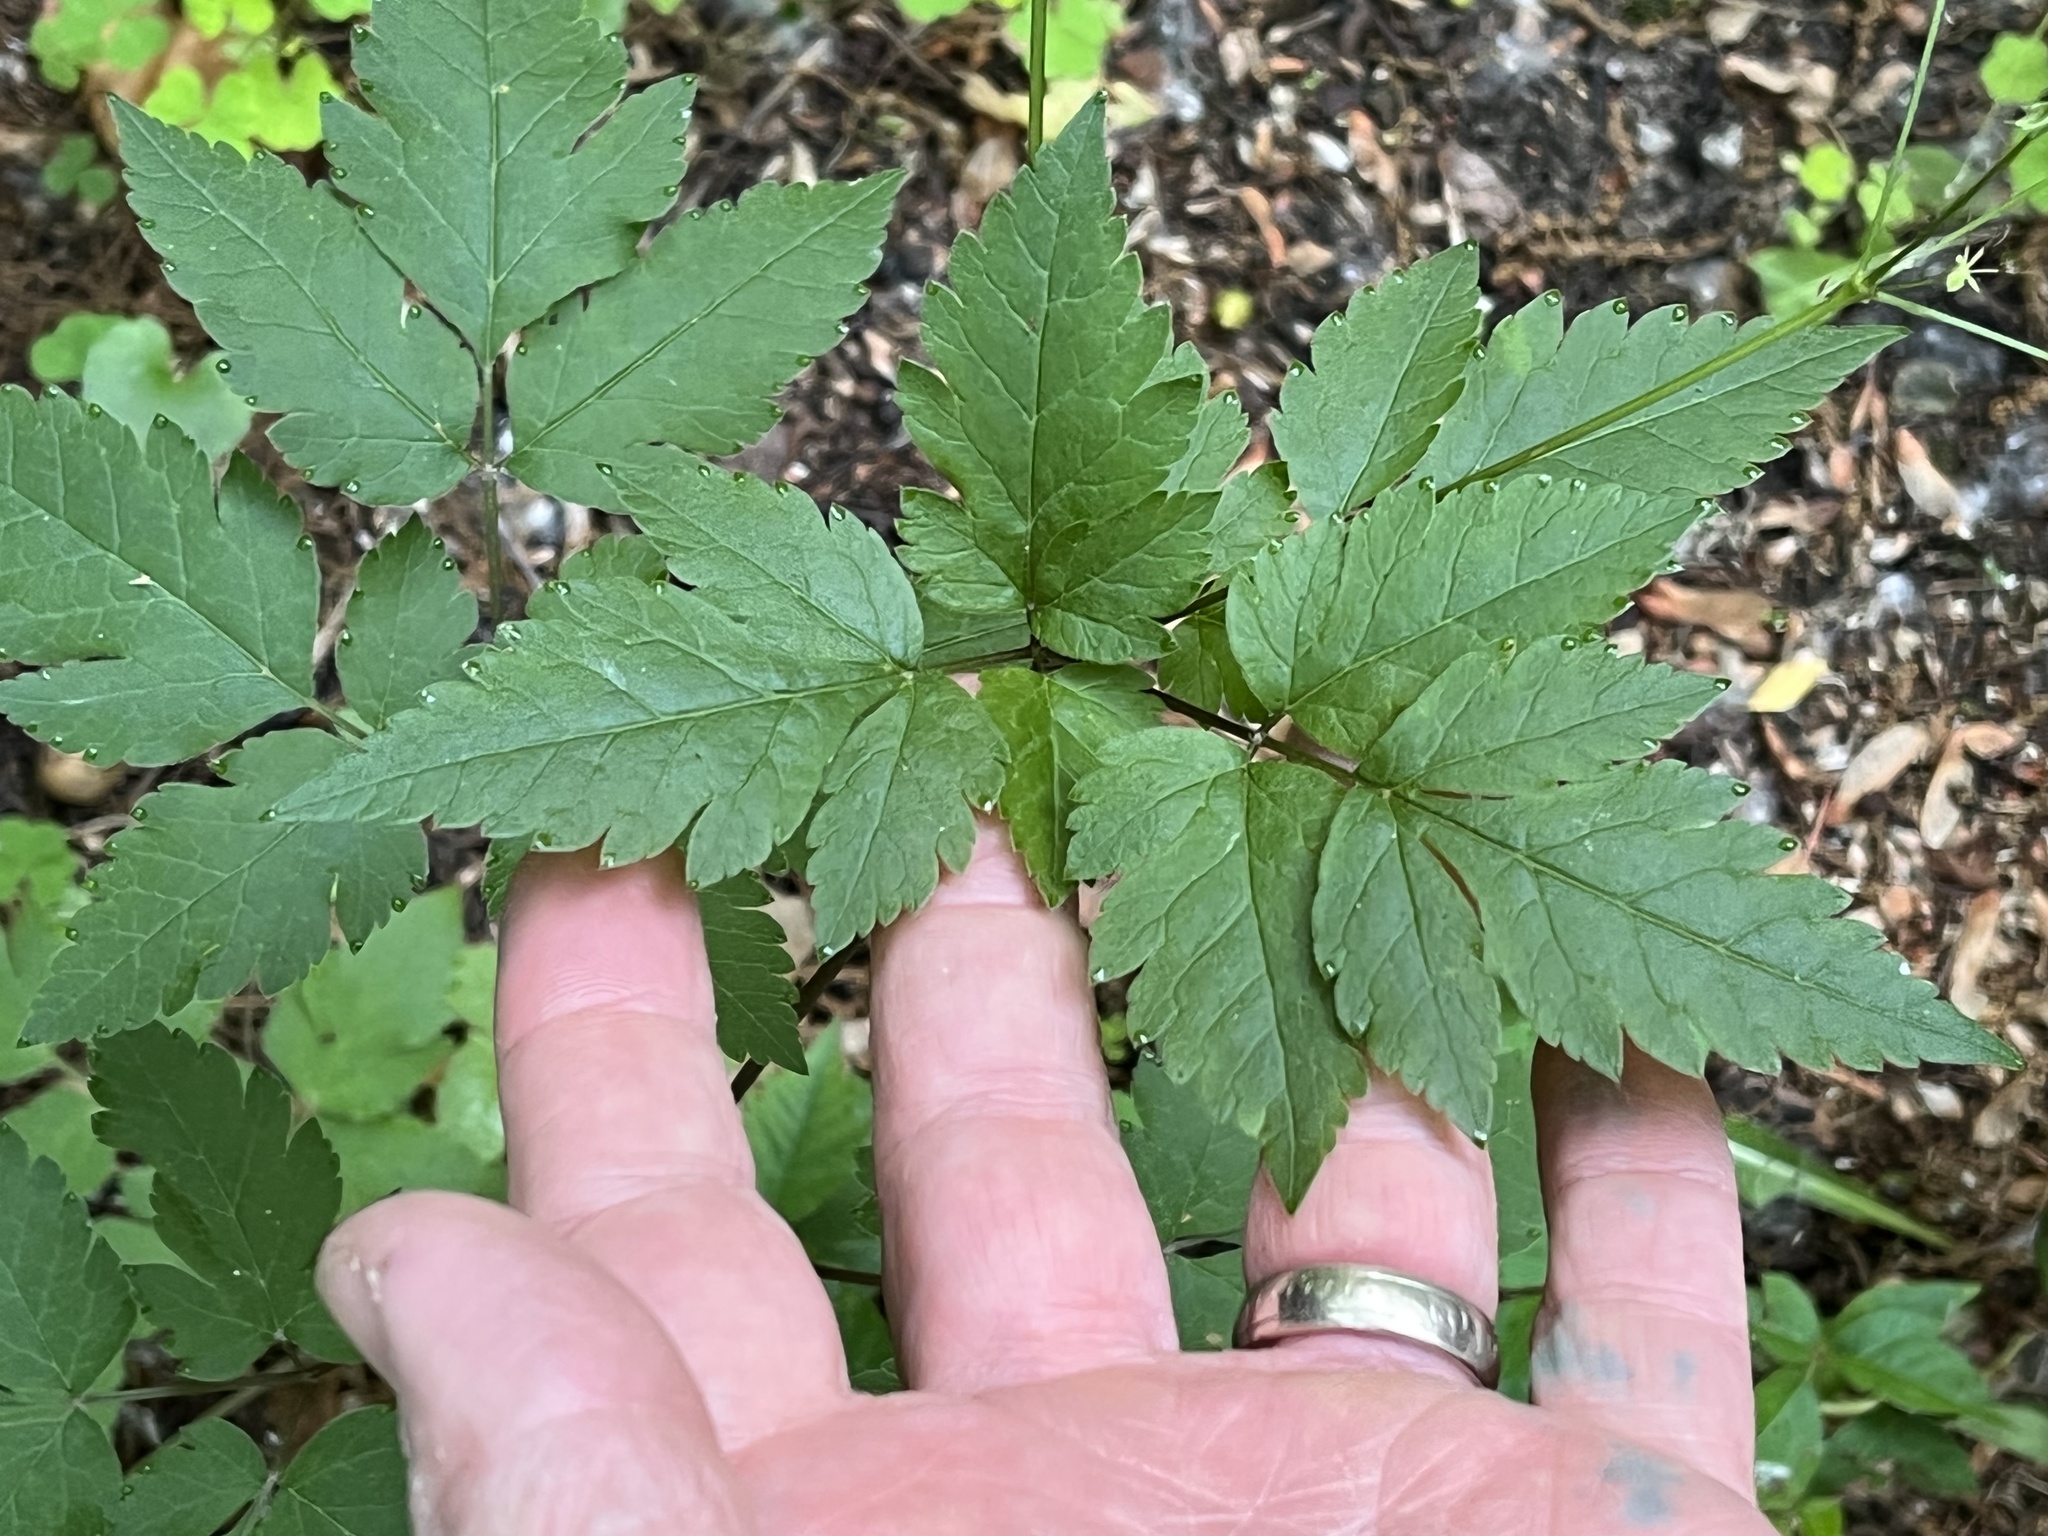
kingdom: Plantae
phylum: Tracheophyta
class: Magnoliopsida
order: Apiales
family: Apiaceae
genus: Osmorhiza
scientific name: Osmorhiza longistylis
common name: Smooth sweet cicely
